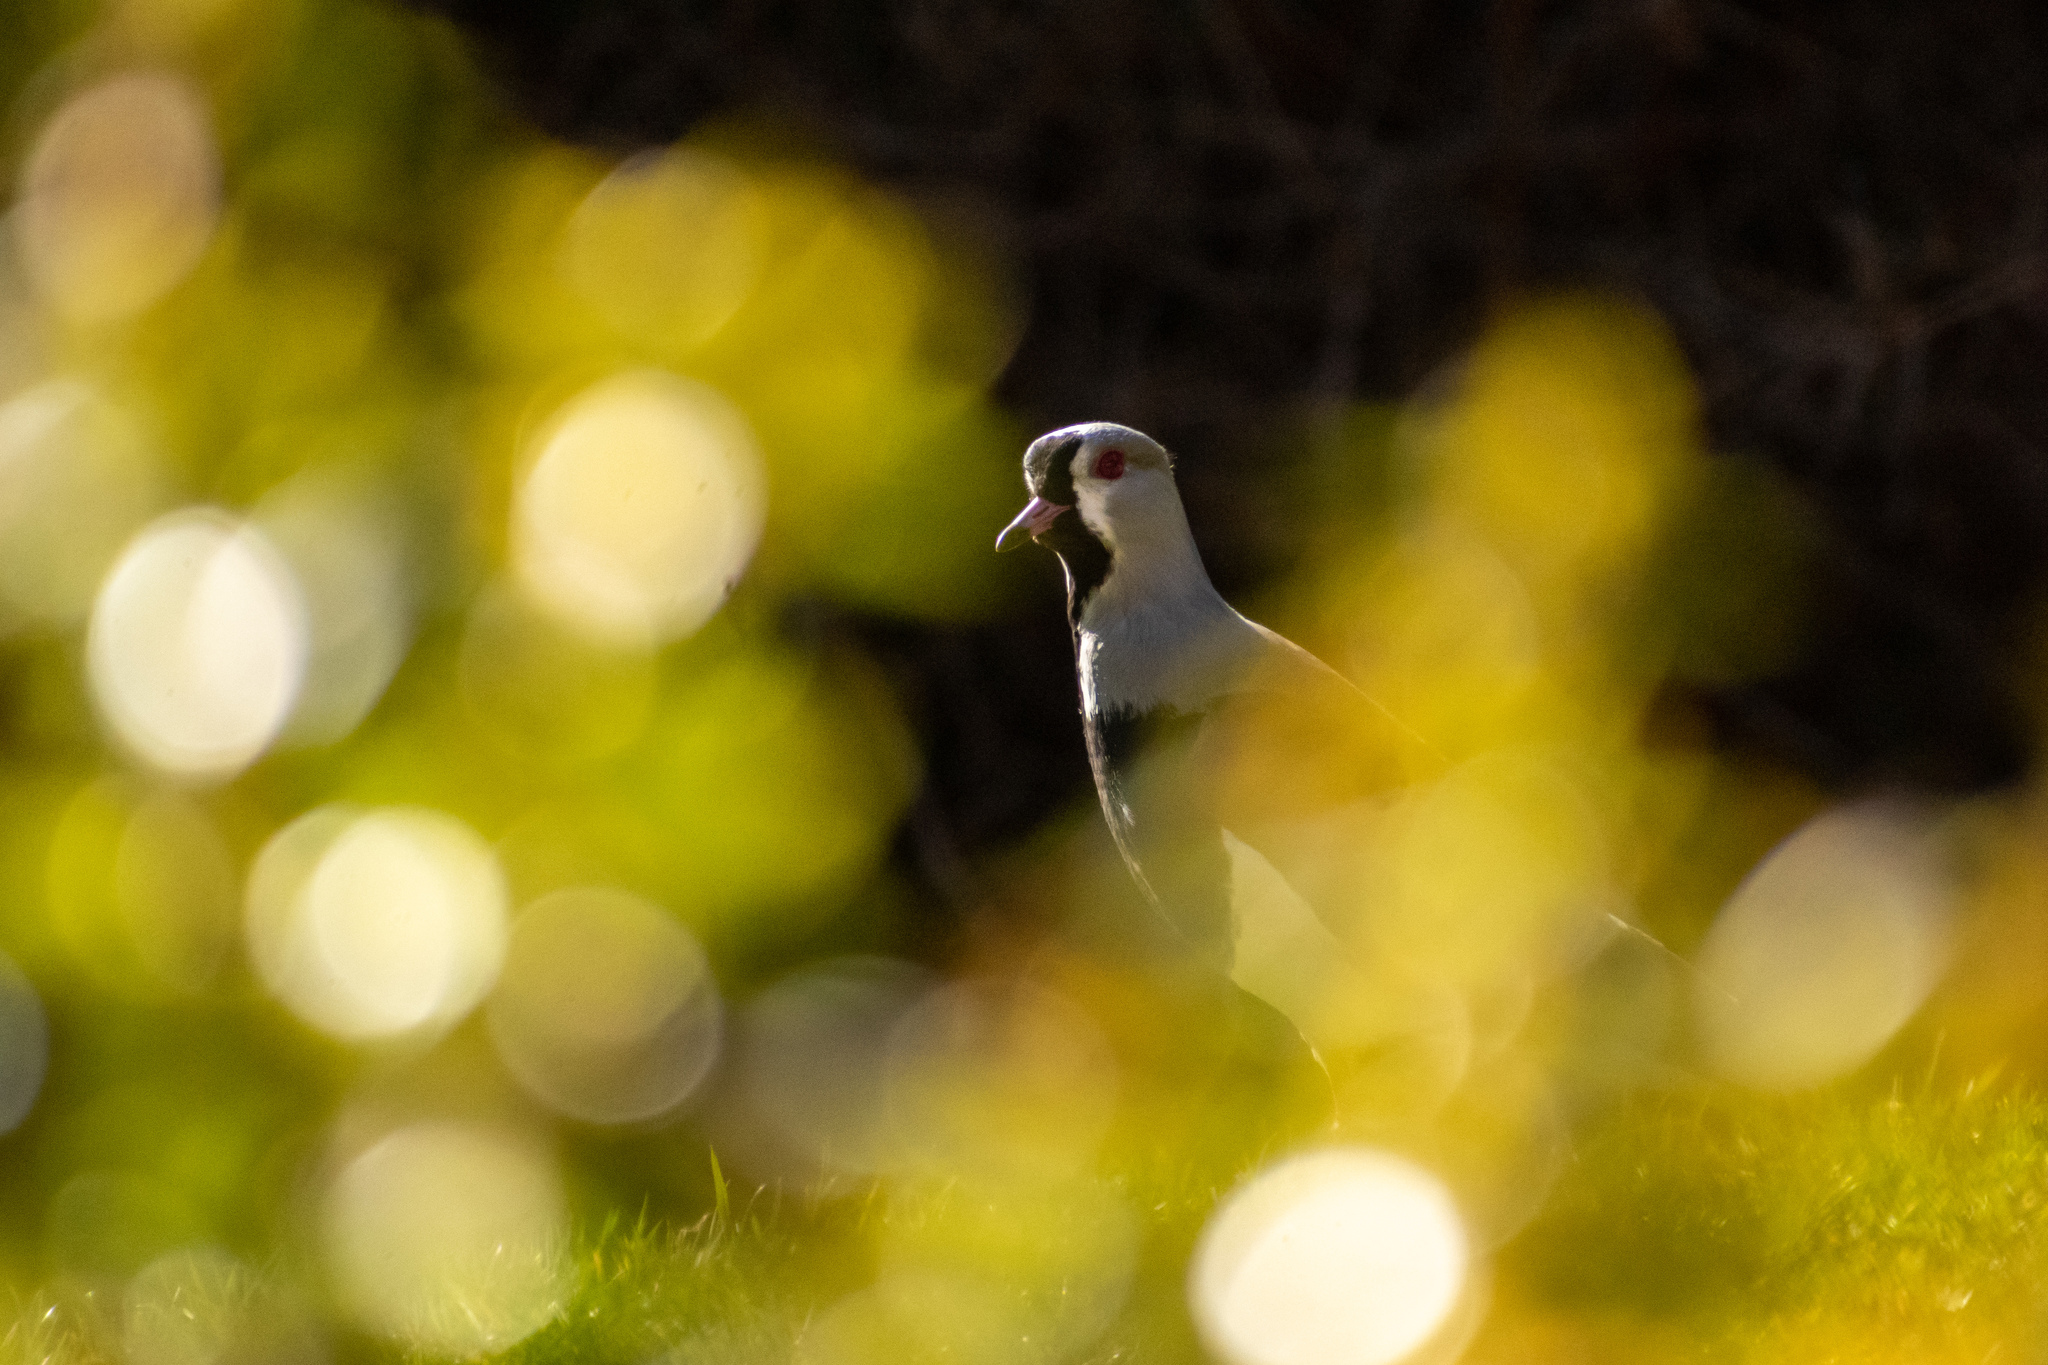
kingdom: Animalia
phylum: Chordata
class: Aves
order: Charadriiformes
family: Charadriidae
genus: Vanellus
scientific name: Vanellus chilensis
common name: Southern lapwing
